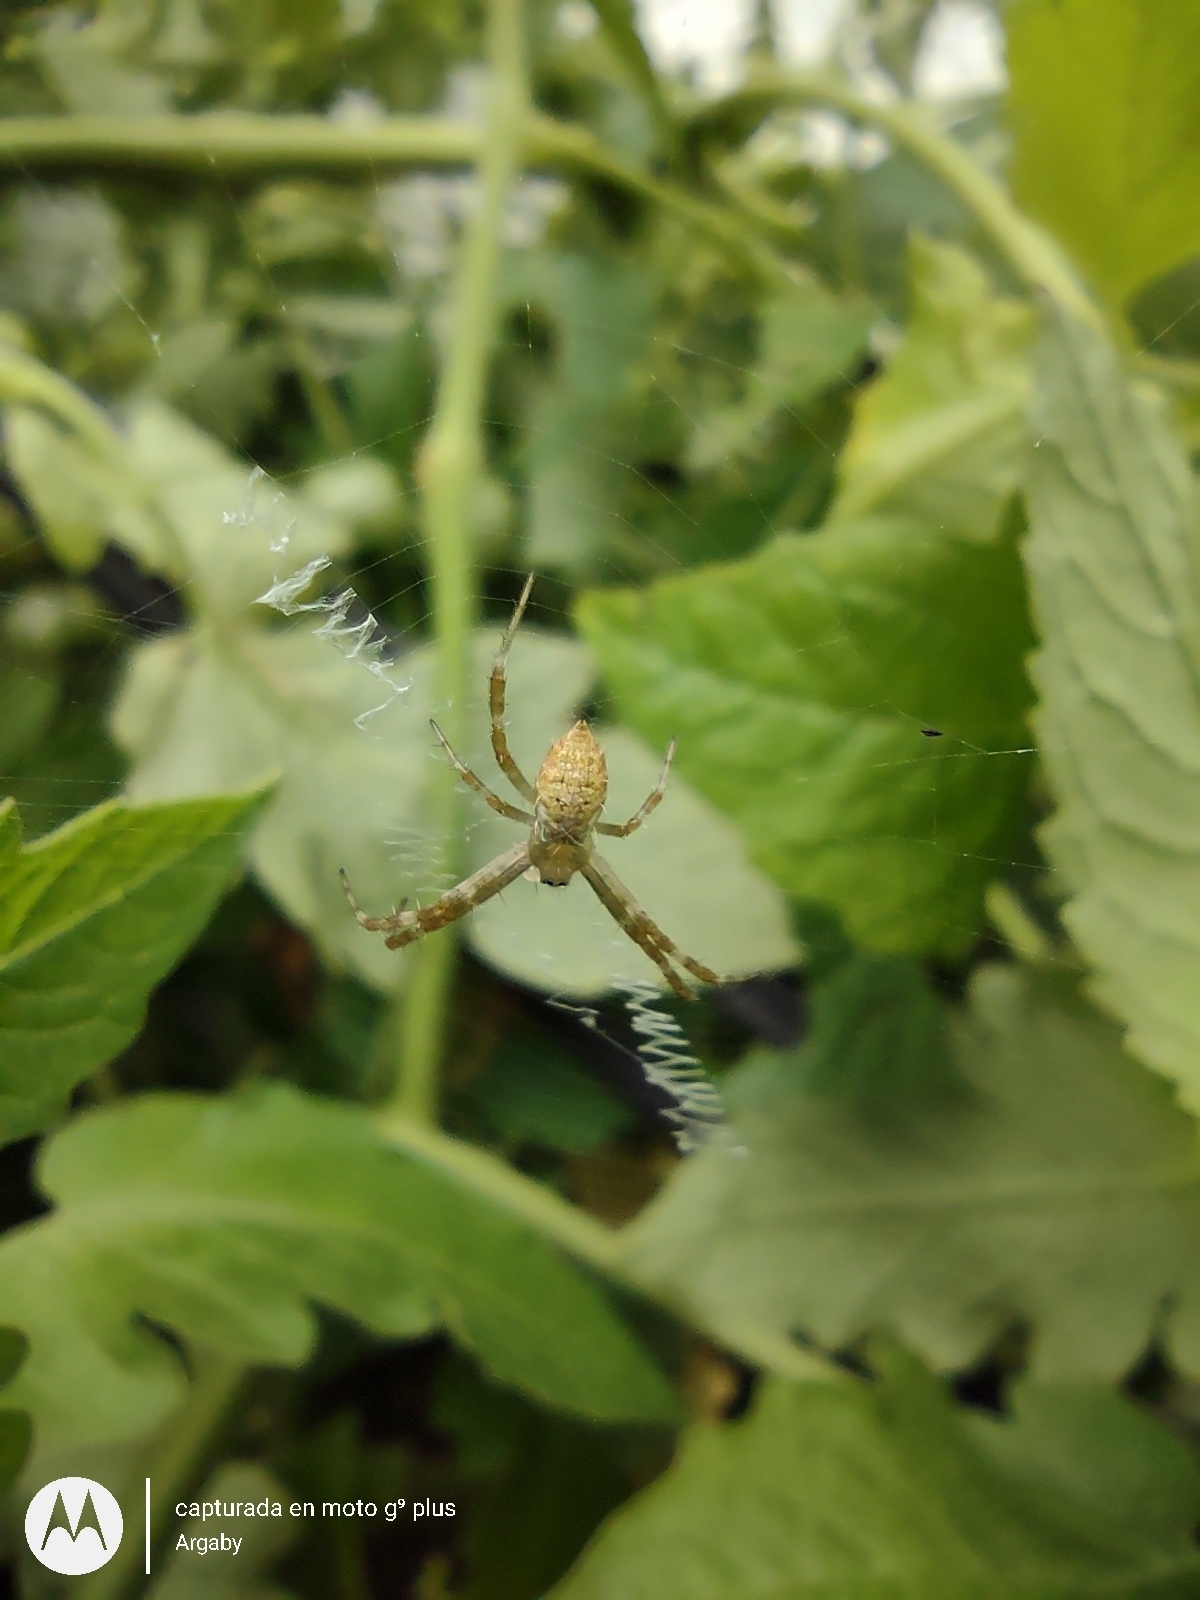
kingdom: Animalia
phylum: Arthropoda
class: Arachnida
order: Araneae
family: Araneidae
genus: Argiope
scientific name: Argiope argentata
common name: Orb weavers
